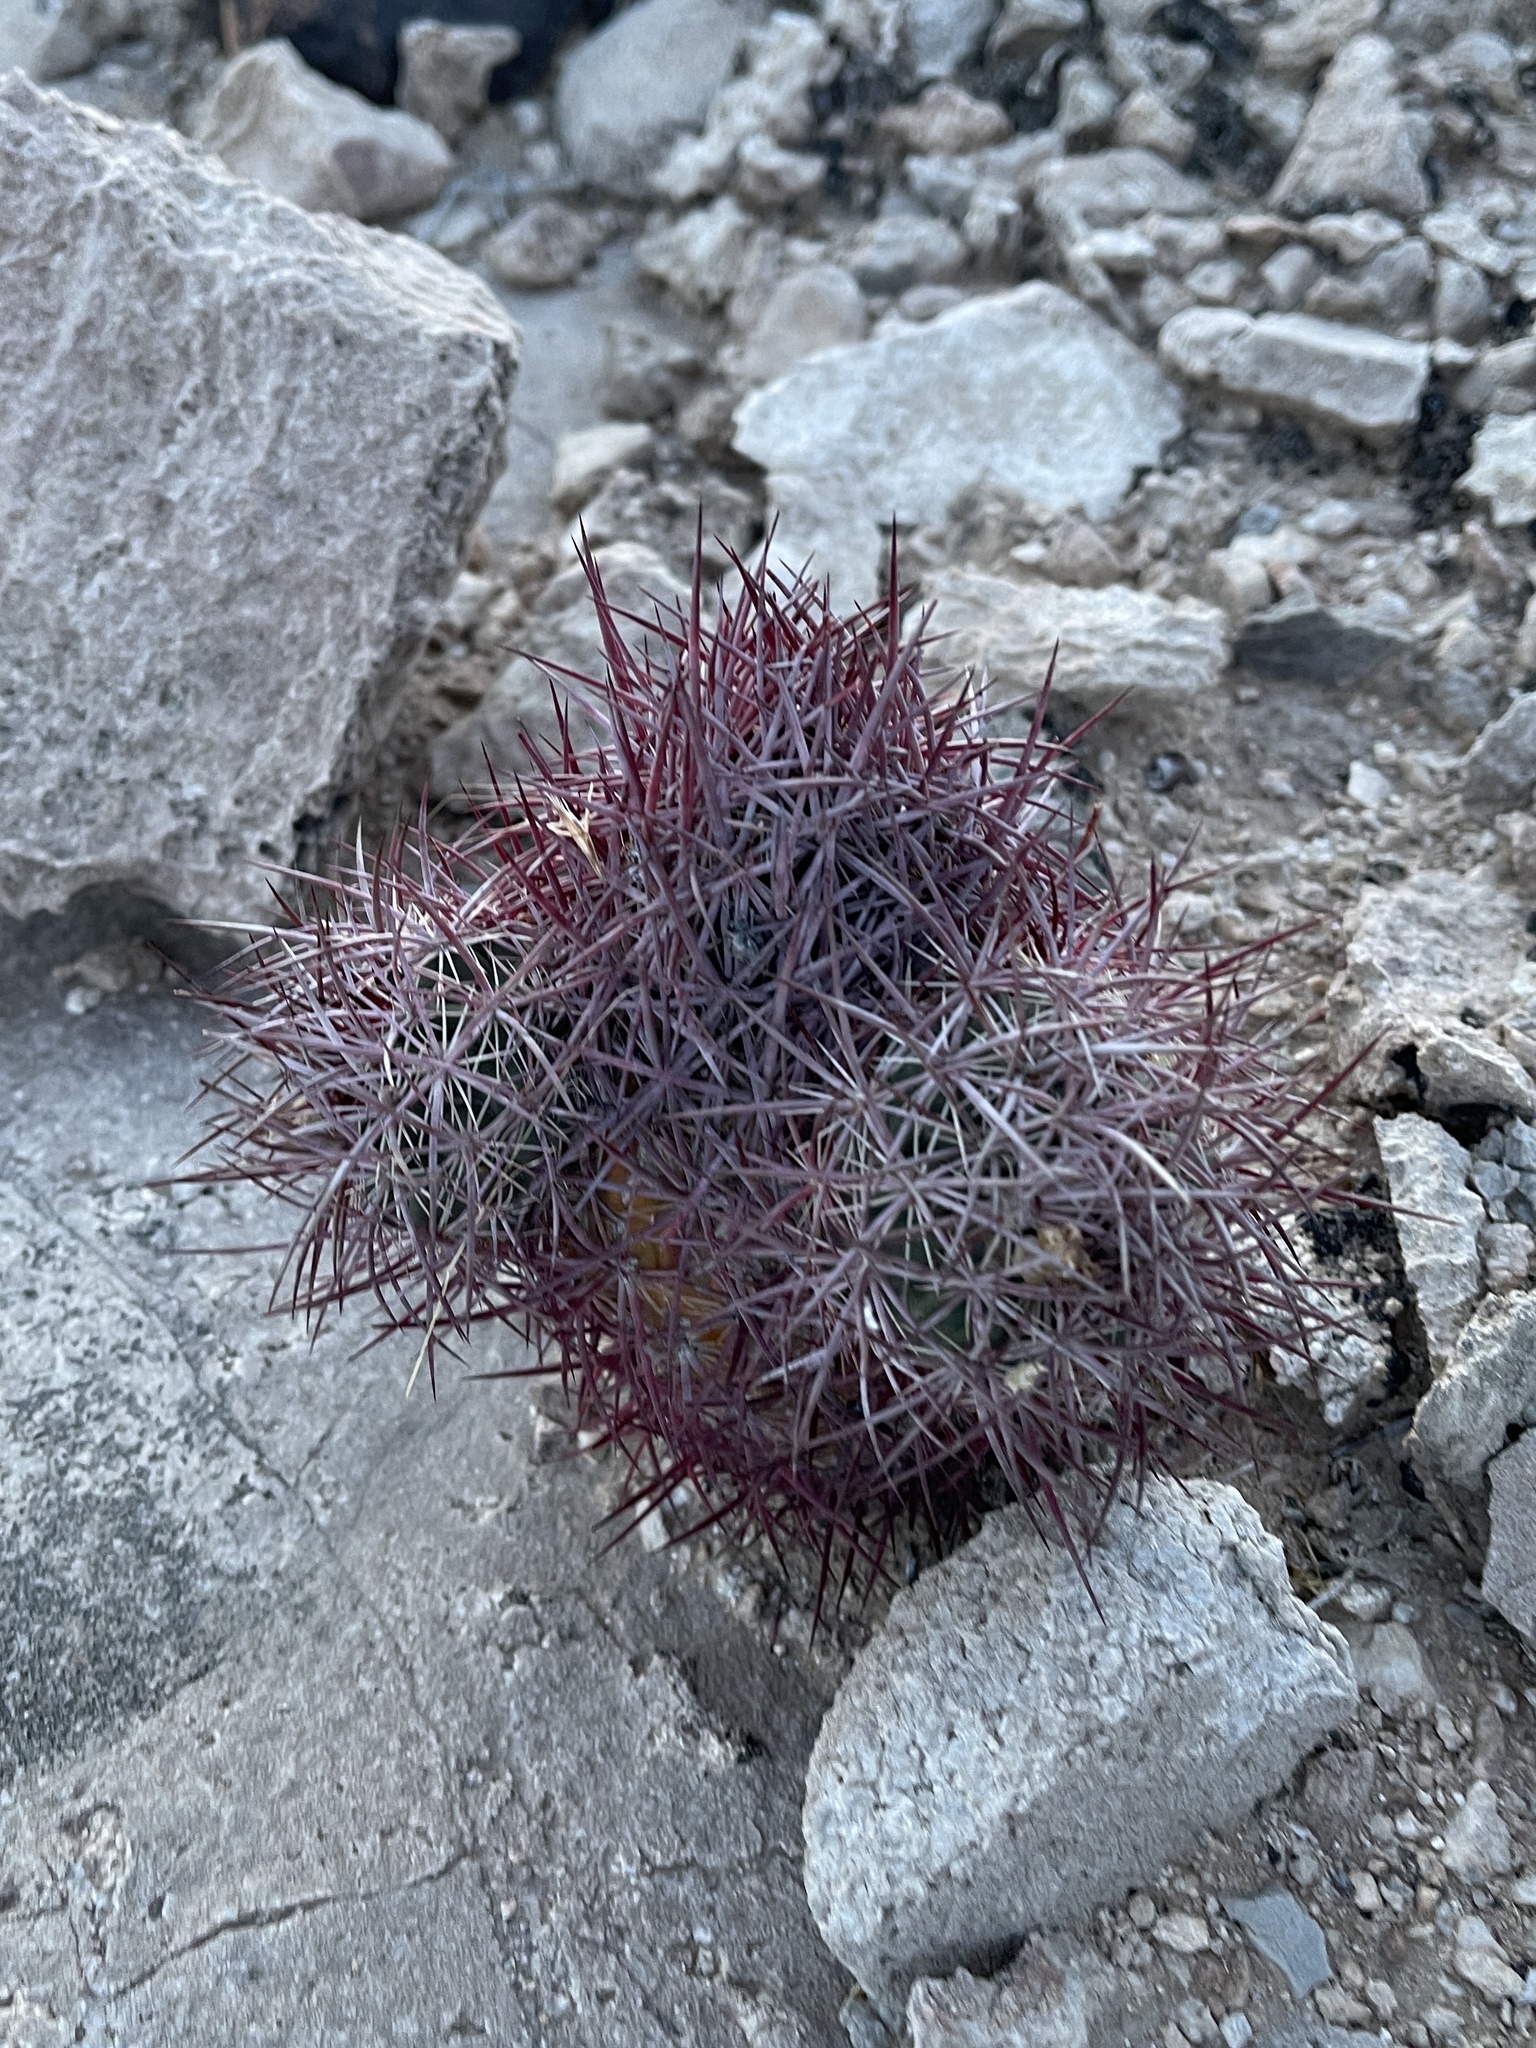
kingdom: Plantae
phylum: Tracheophyta
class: Magnoliopsida
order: Caryophyllales
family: Cactaceae
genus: Sclerocactus
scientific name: Sclerocactus johnsonii
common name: Eight-spine fishhook cactus
